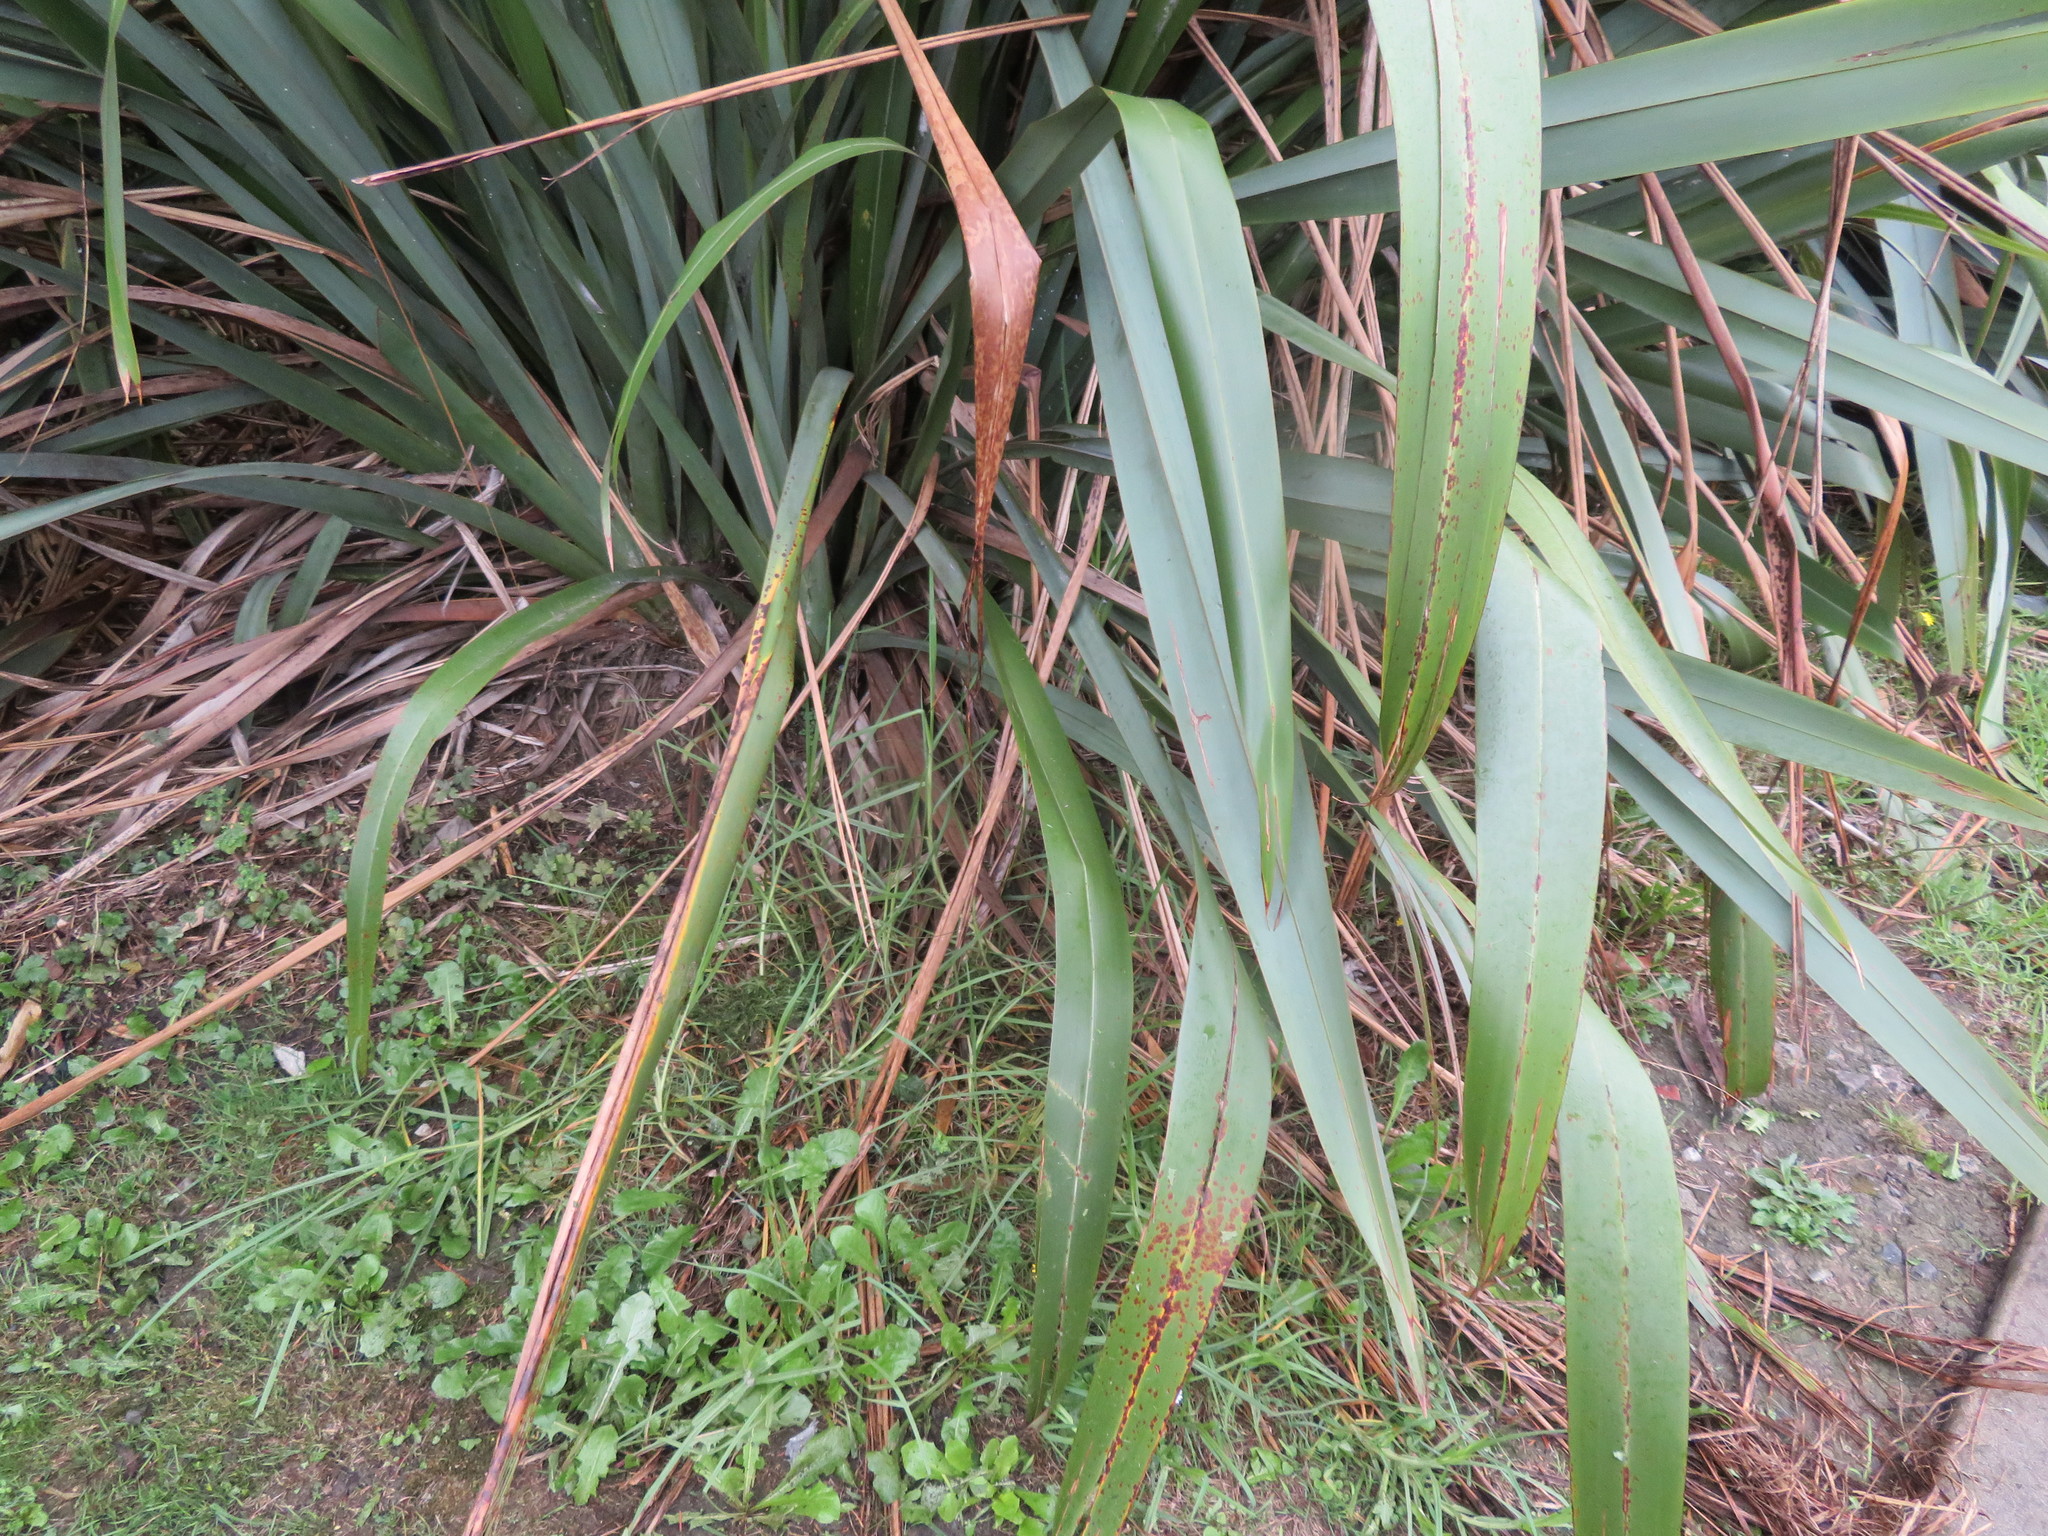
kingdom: Plantae
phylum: Tracheophyta
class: Liliopsida
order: Poales
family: Poaceae
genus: Cenchrus
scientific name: Cenchrus clandestinus
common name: Kikuyugrass
